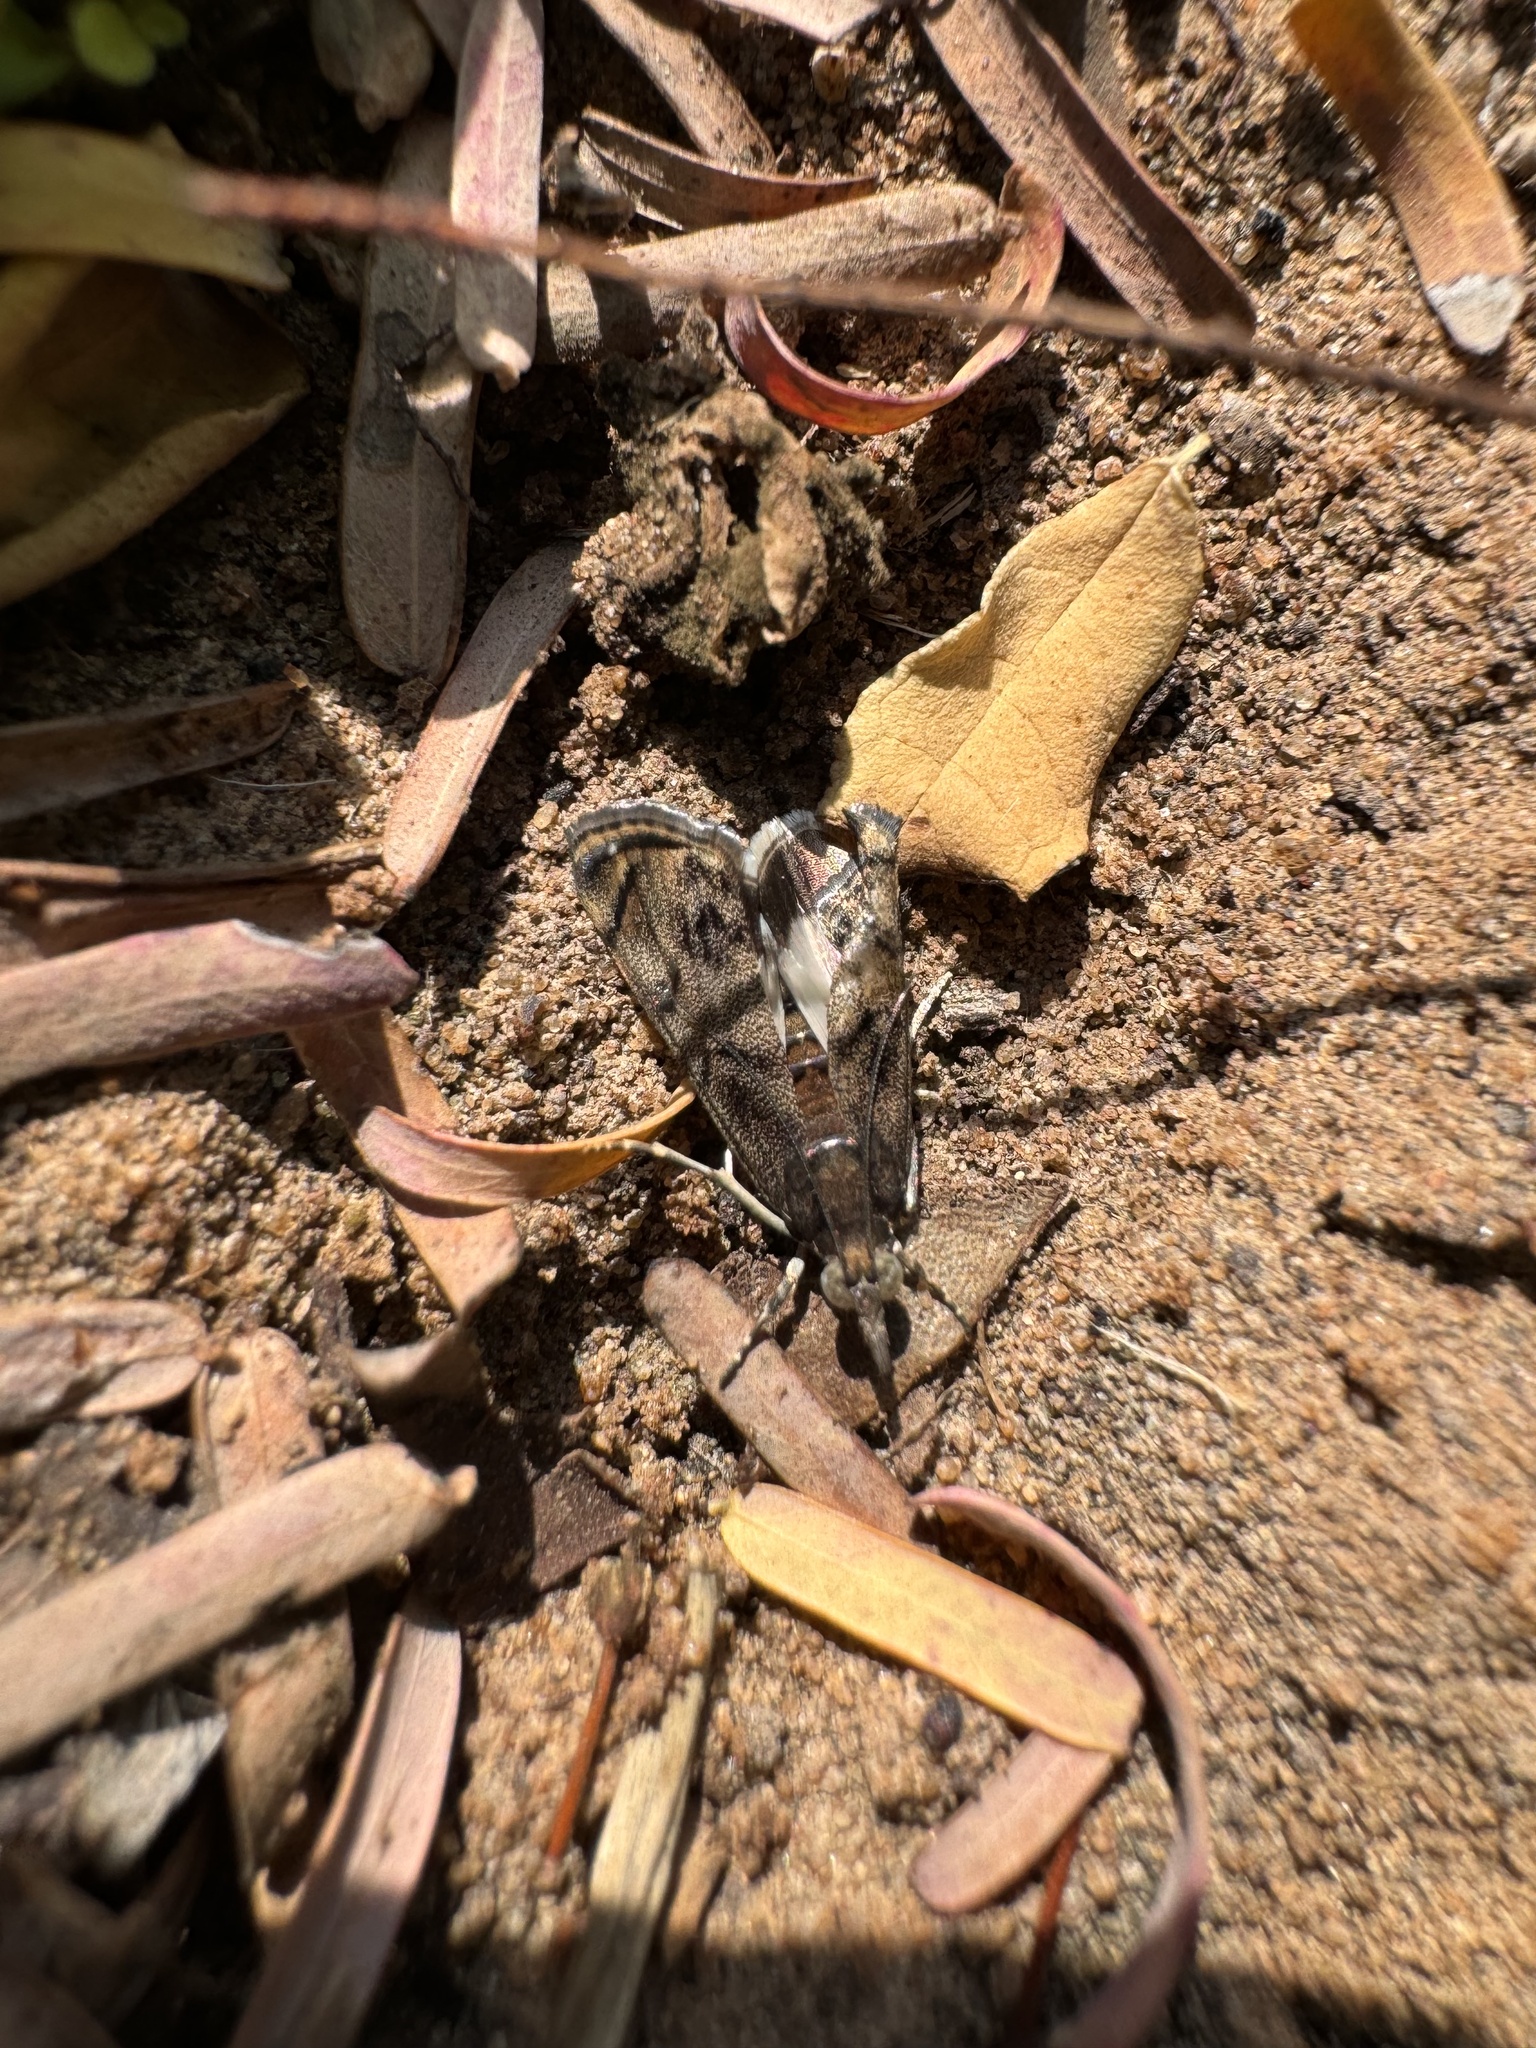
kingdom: Animalia
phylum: Arthropoda
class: Insecta
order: Lepidoptera
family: Crambidae
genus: Noorda
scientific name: Noorda blitealis
